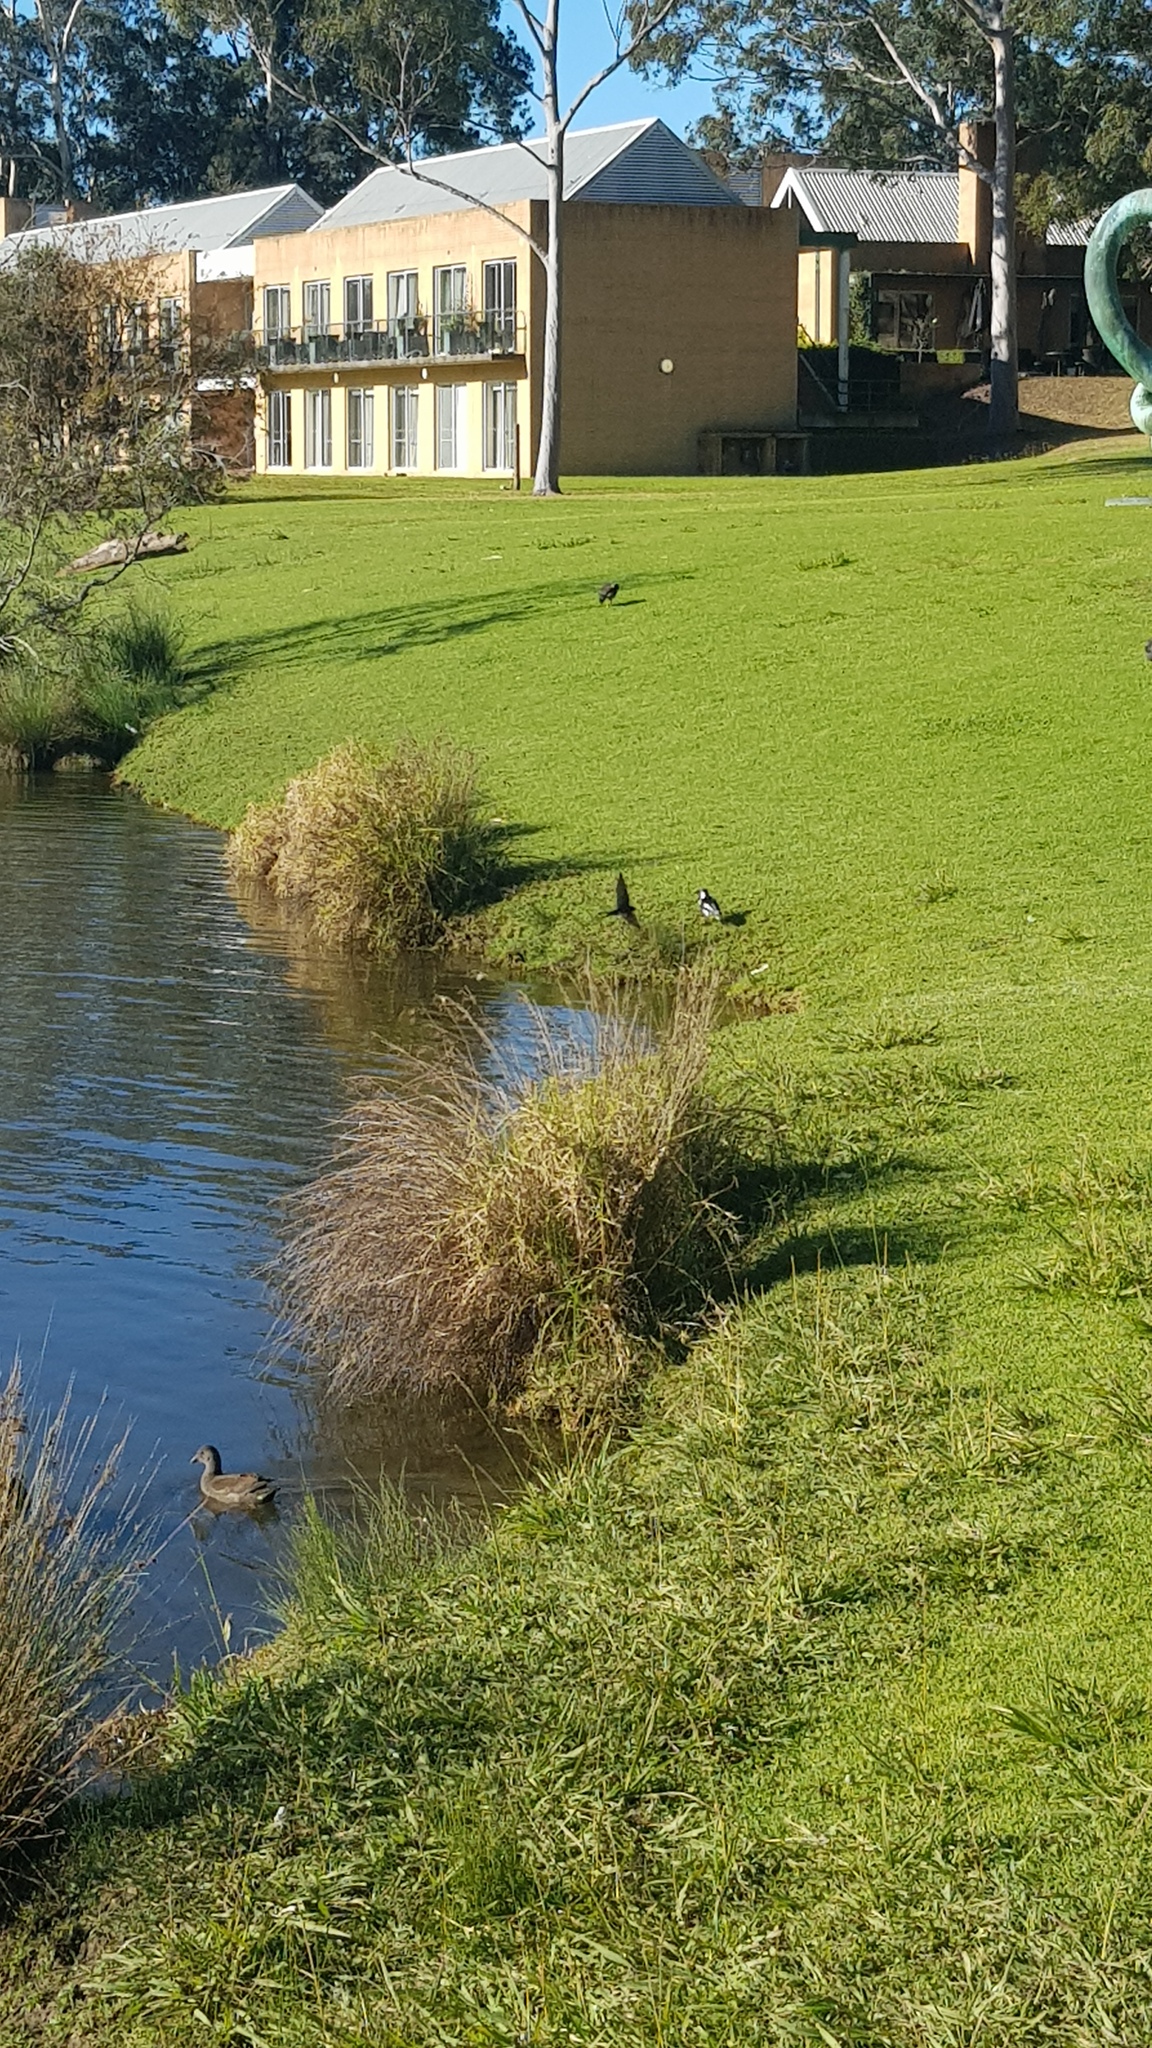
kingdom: Animalia
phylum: Chordata
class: Aves
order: Passeriformes
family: Hirundinidae
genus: Hirundo
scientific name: Hirundo neoxena
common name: Welcome swallow
